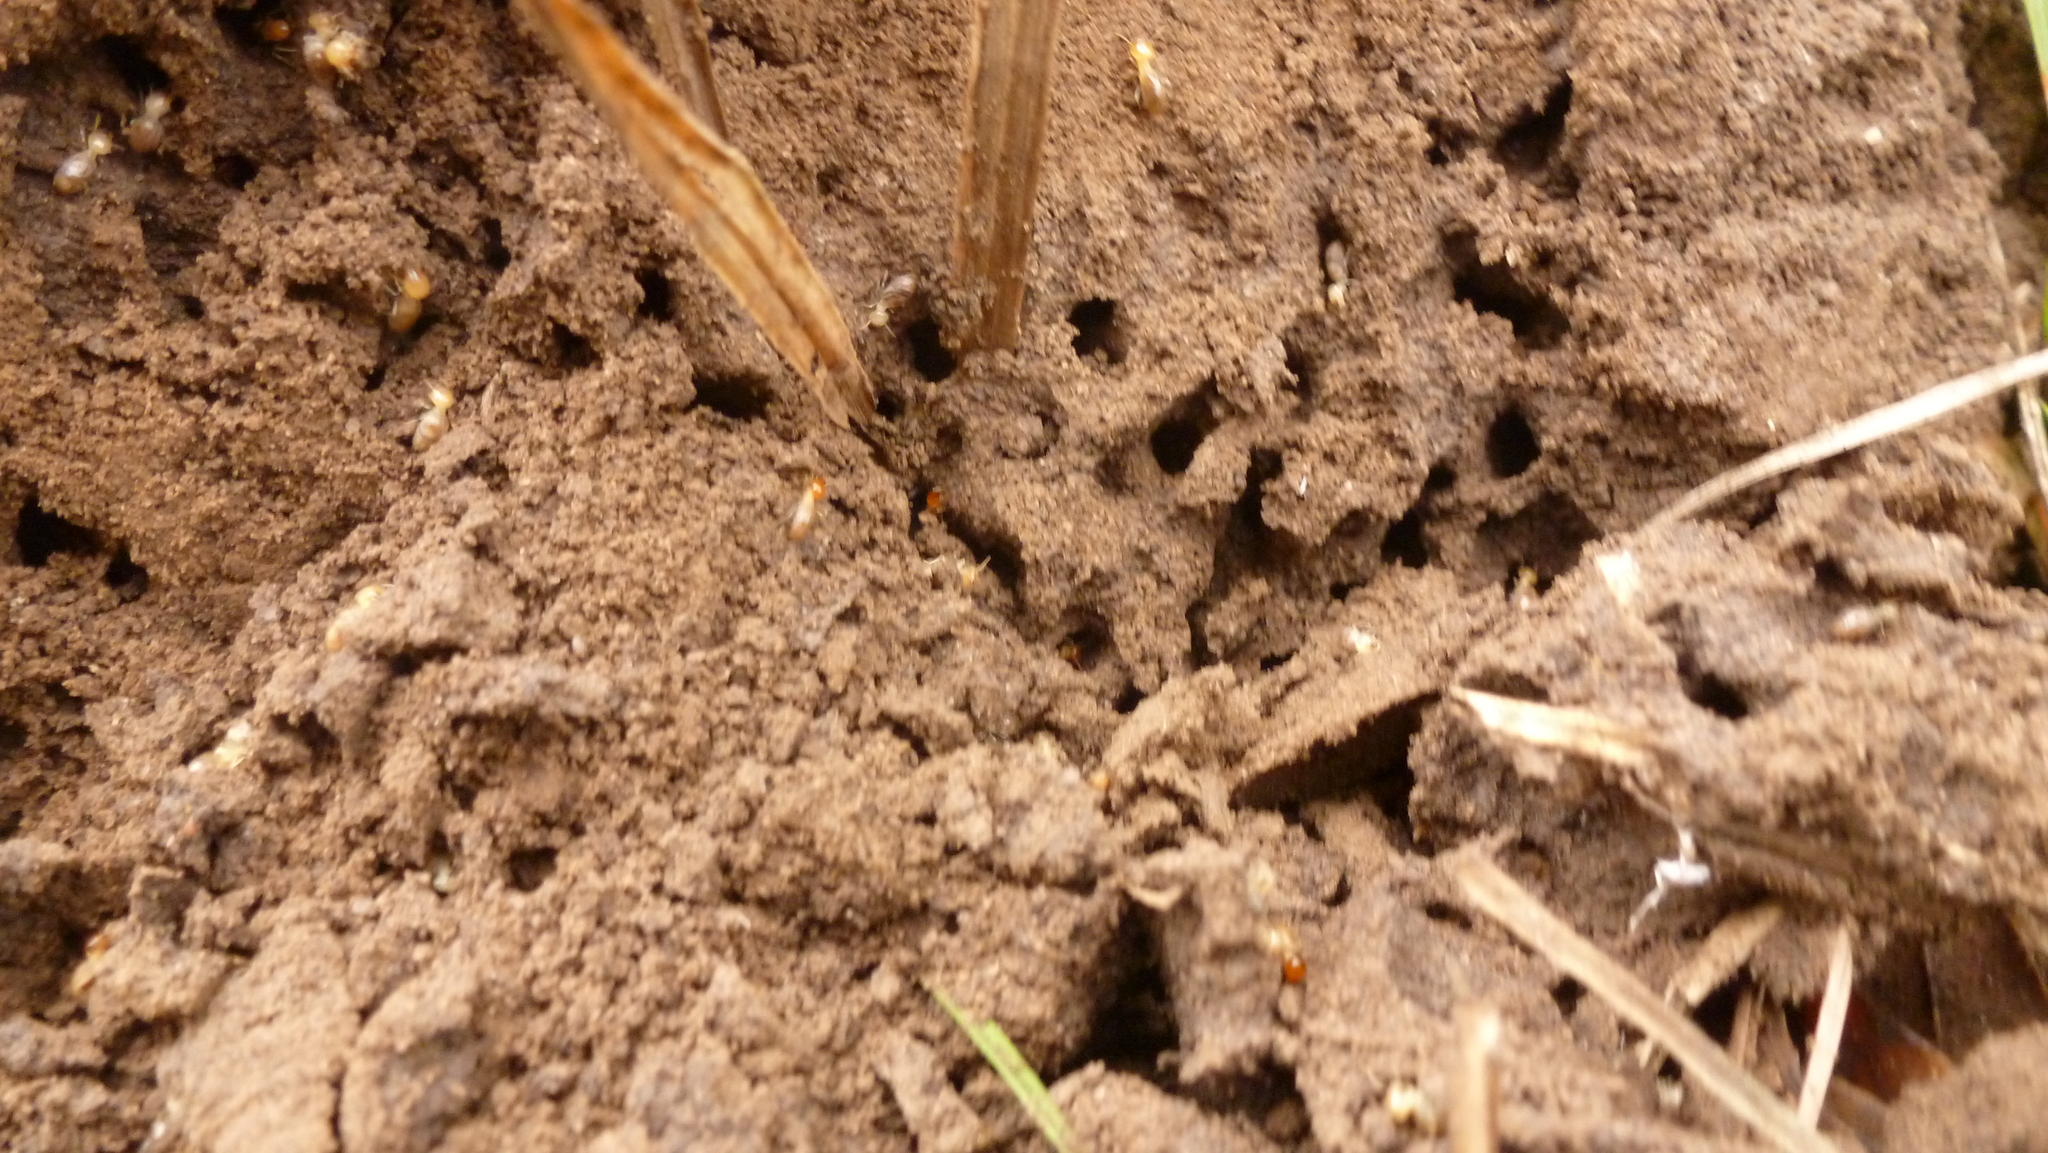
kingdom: Animalia
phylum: Arthropoda
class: Insecta
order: Blattodea
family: Termitidae
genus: Cortaritermes
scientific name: Cortaritermes fulviceps
